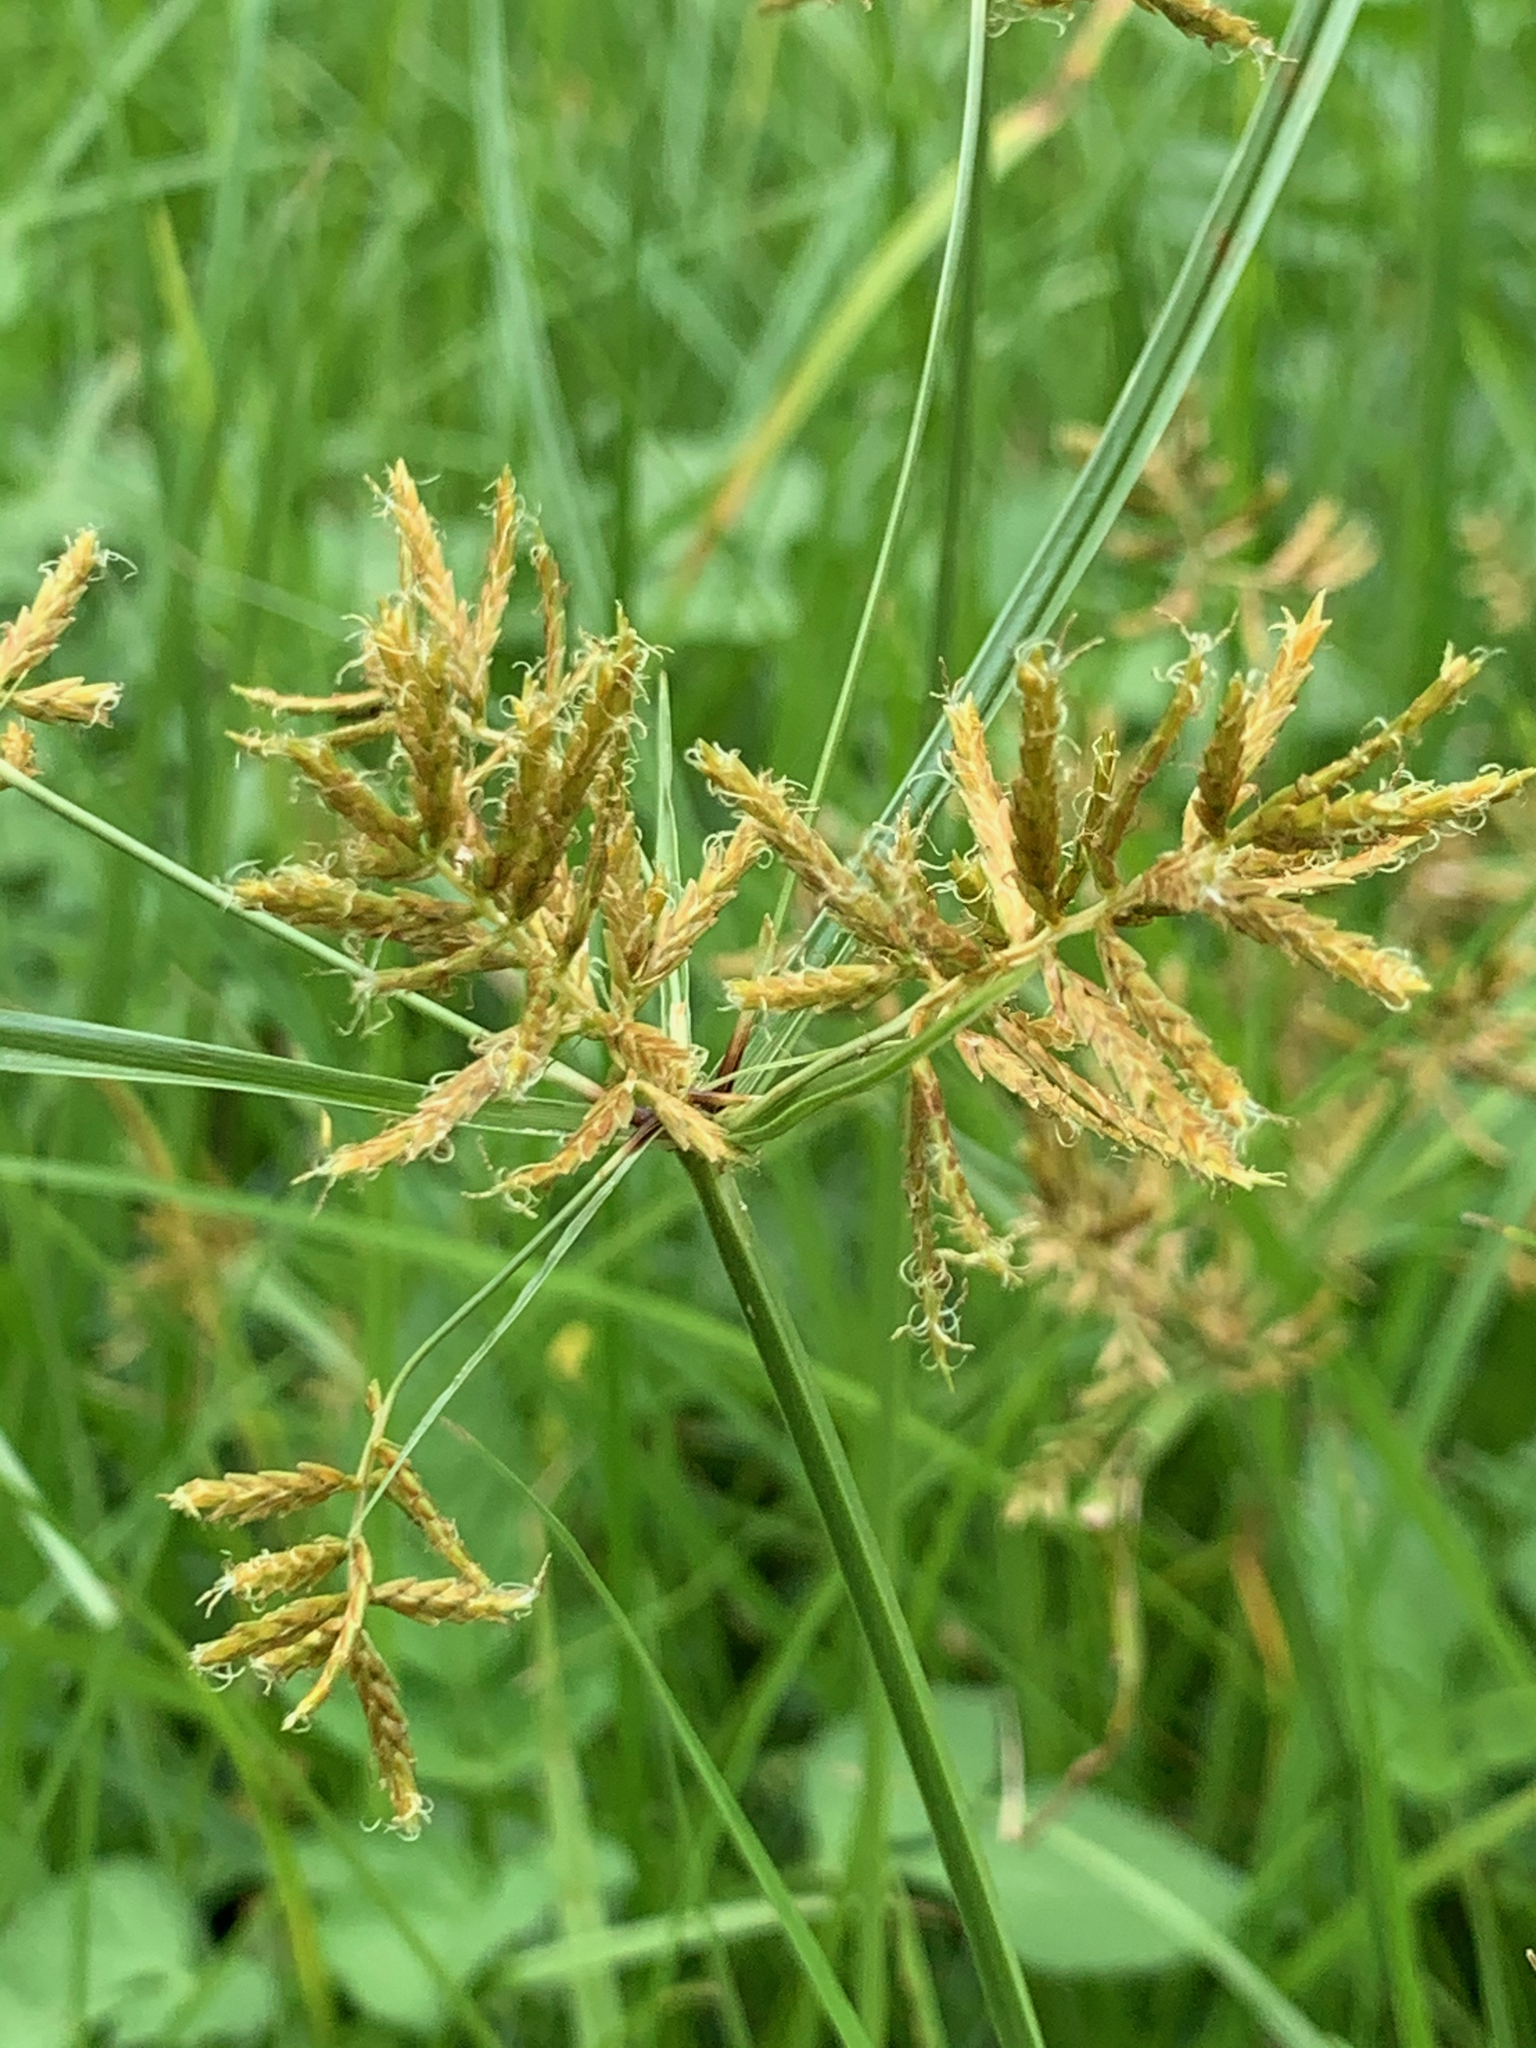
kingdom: Plantae
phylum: Tracheophyta
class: Liliopsida
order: Poales
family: Cyperaceae
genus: Cyperus
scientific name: Cyperus esculentus
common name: Yellow nutsedge
